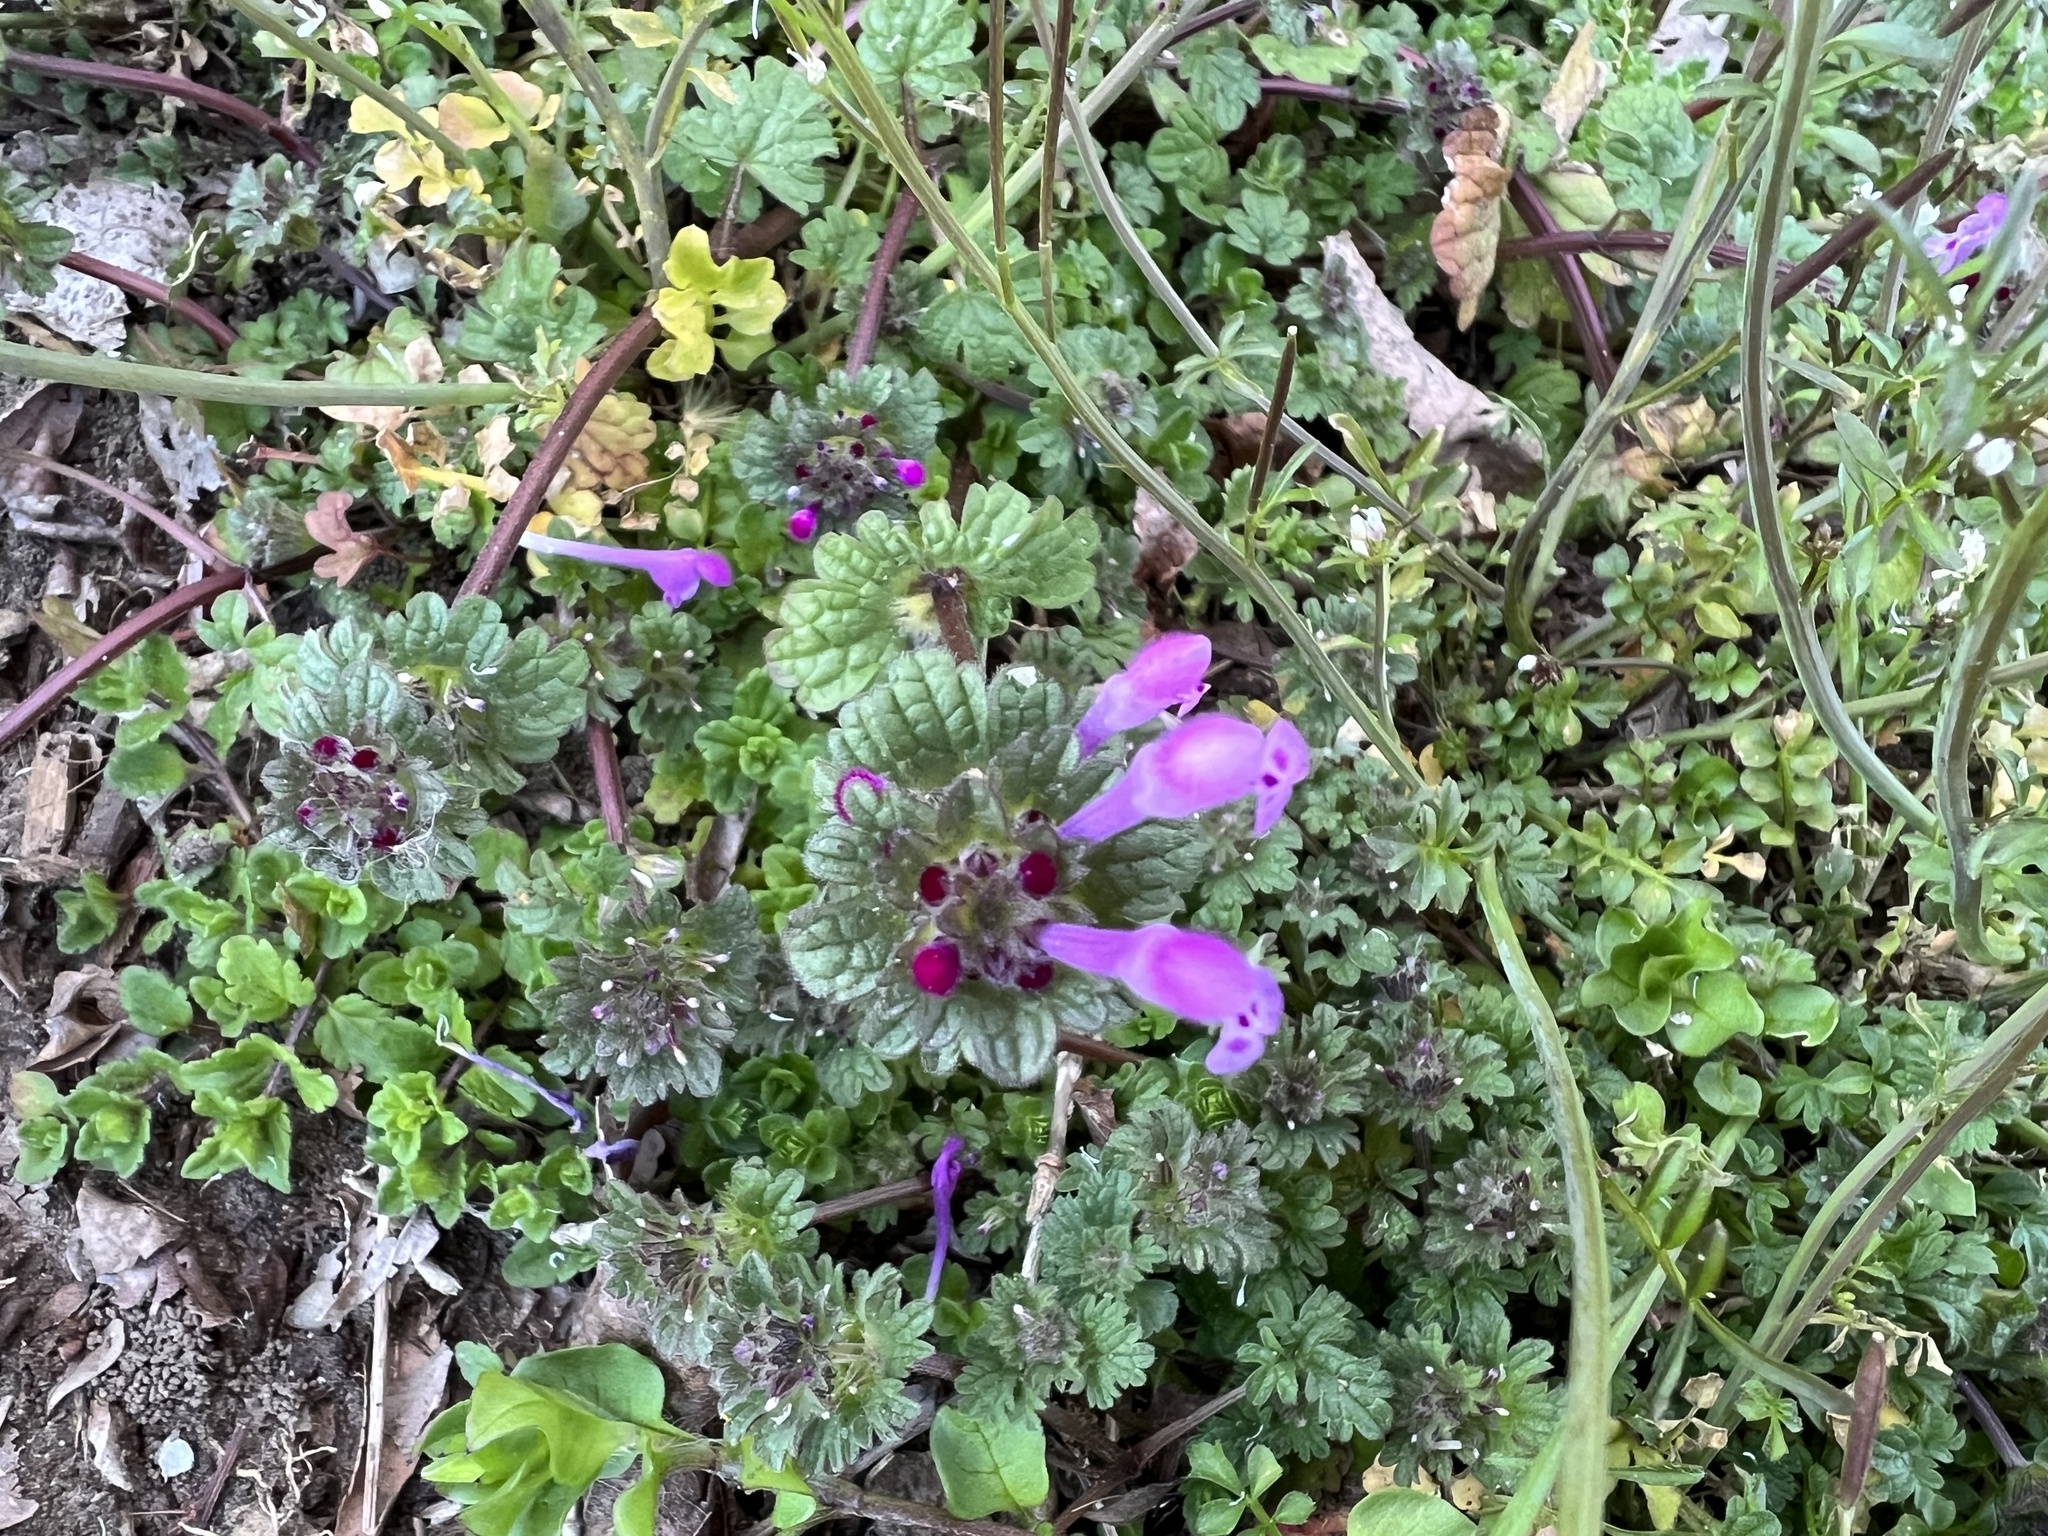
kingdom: Plantae
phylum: Tracheophyta
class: Magnoliopsida
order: Lamiales
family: Lamiaceae
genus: Lamium
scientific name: Lamium amplexicaule
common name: Henbit dead-nettle
